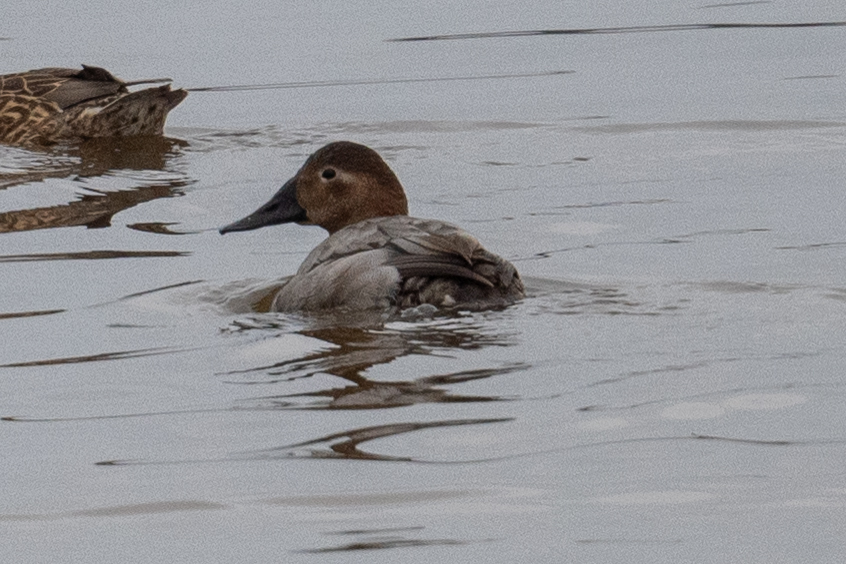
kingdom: Animalia
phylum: Chordata
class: Aves
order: Anseriformes
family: Anatidae
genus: Aythya
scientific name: Aythya valisineria
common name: Canvasback
